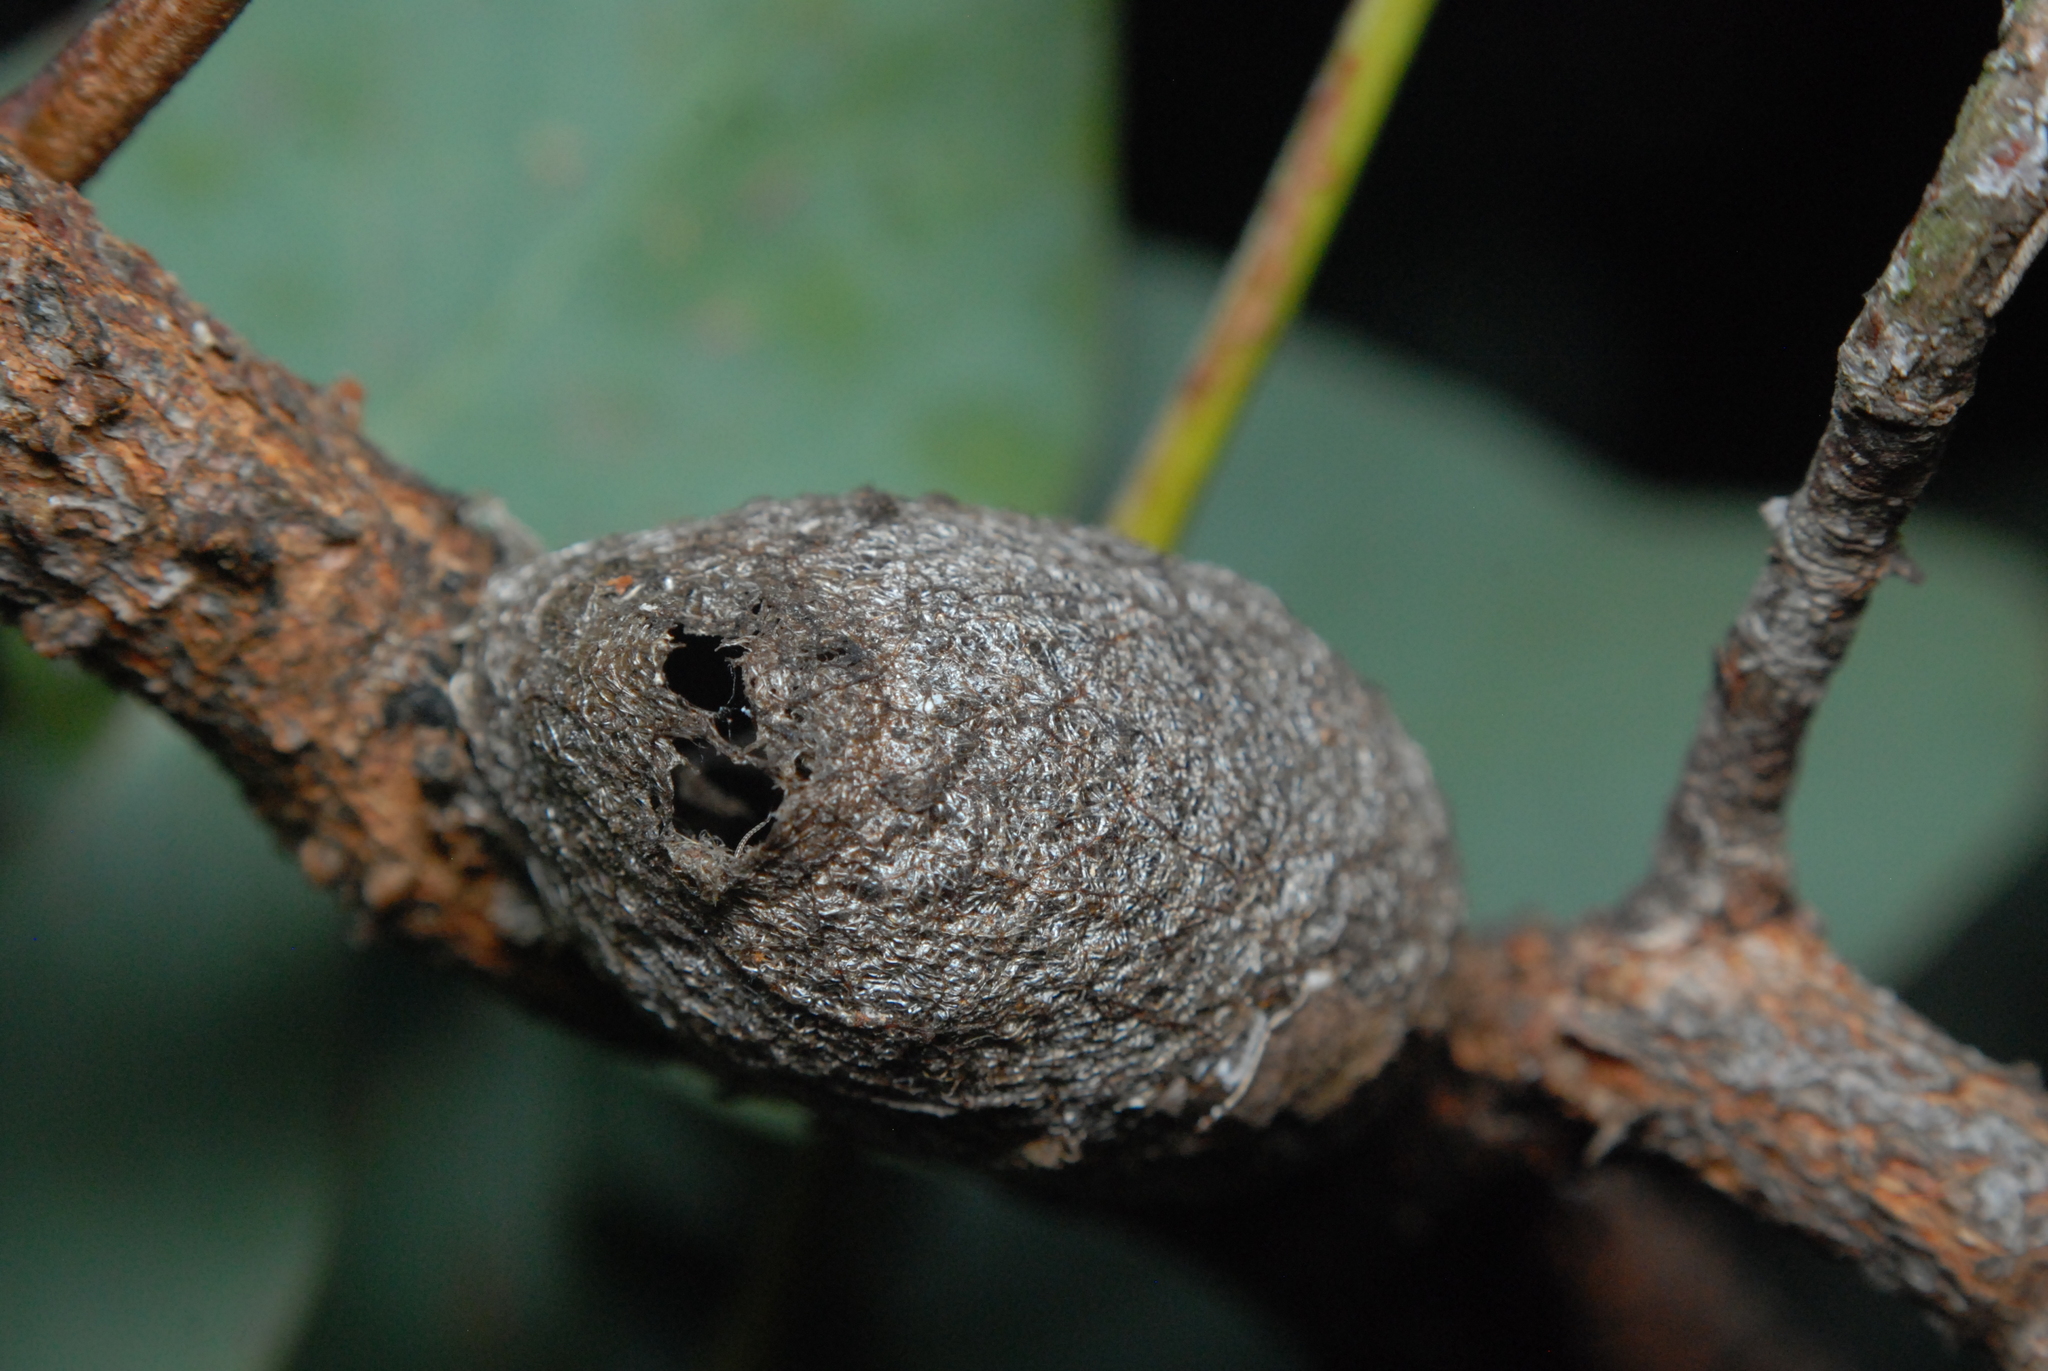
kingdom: Animalia
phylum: Arthropoda
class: Insecta
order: Lepidoptera
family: Saturniidae
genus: Opodiphthera
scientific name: Opodiphthera
